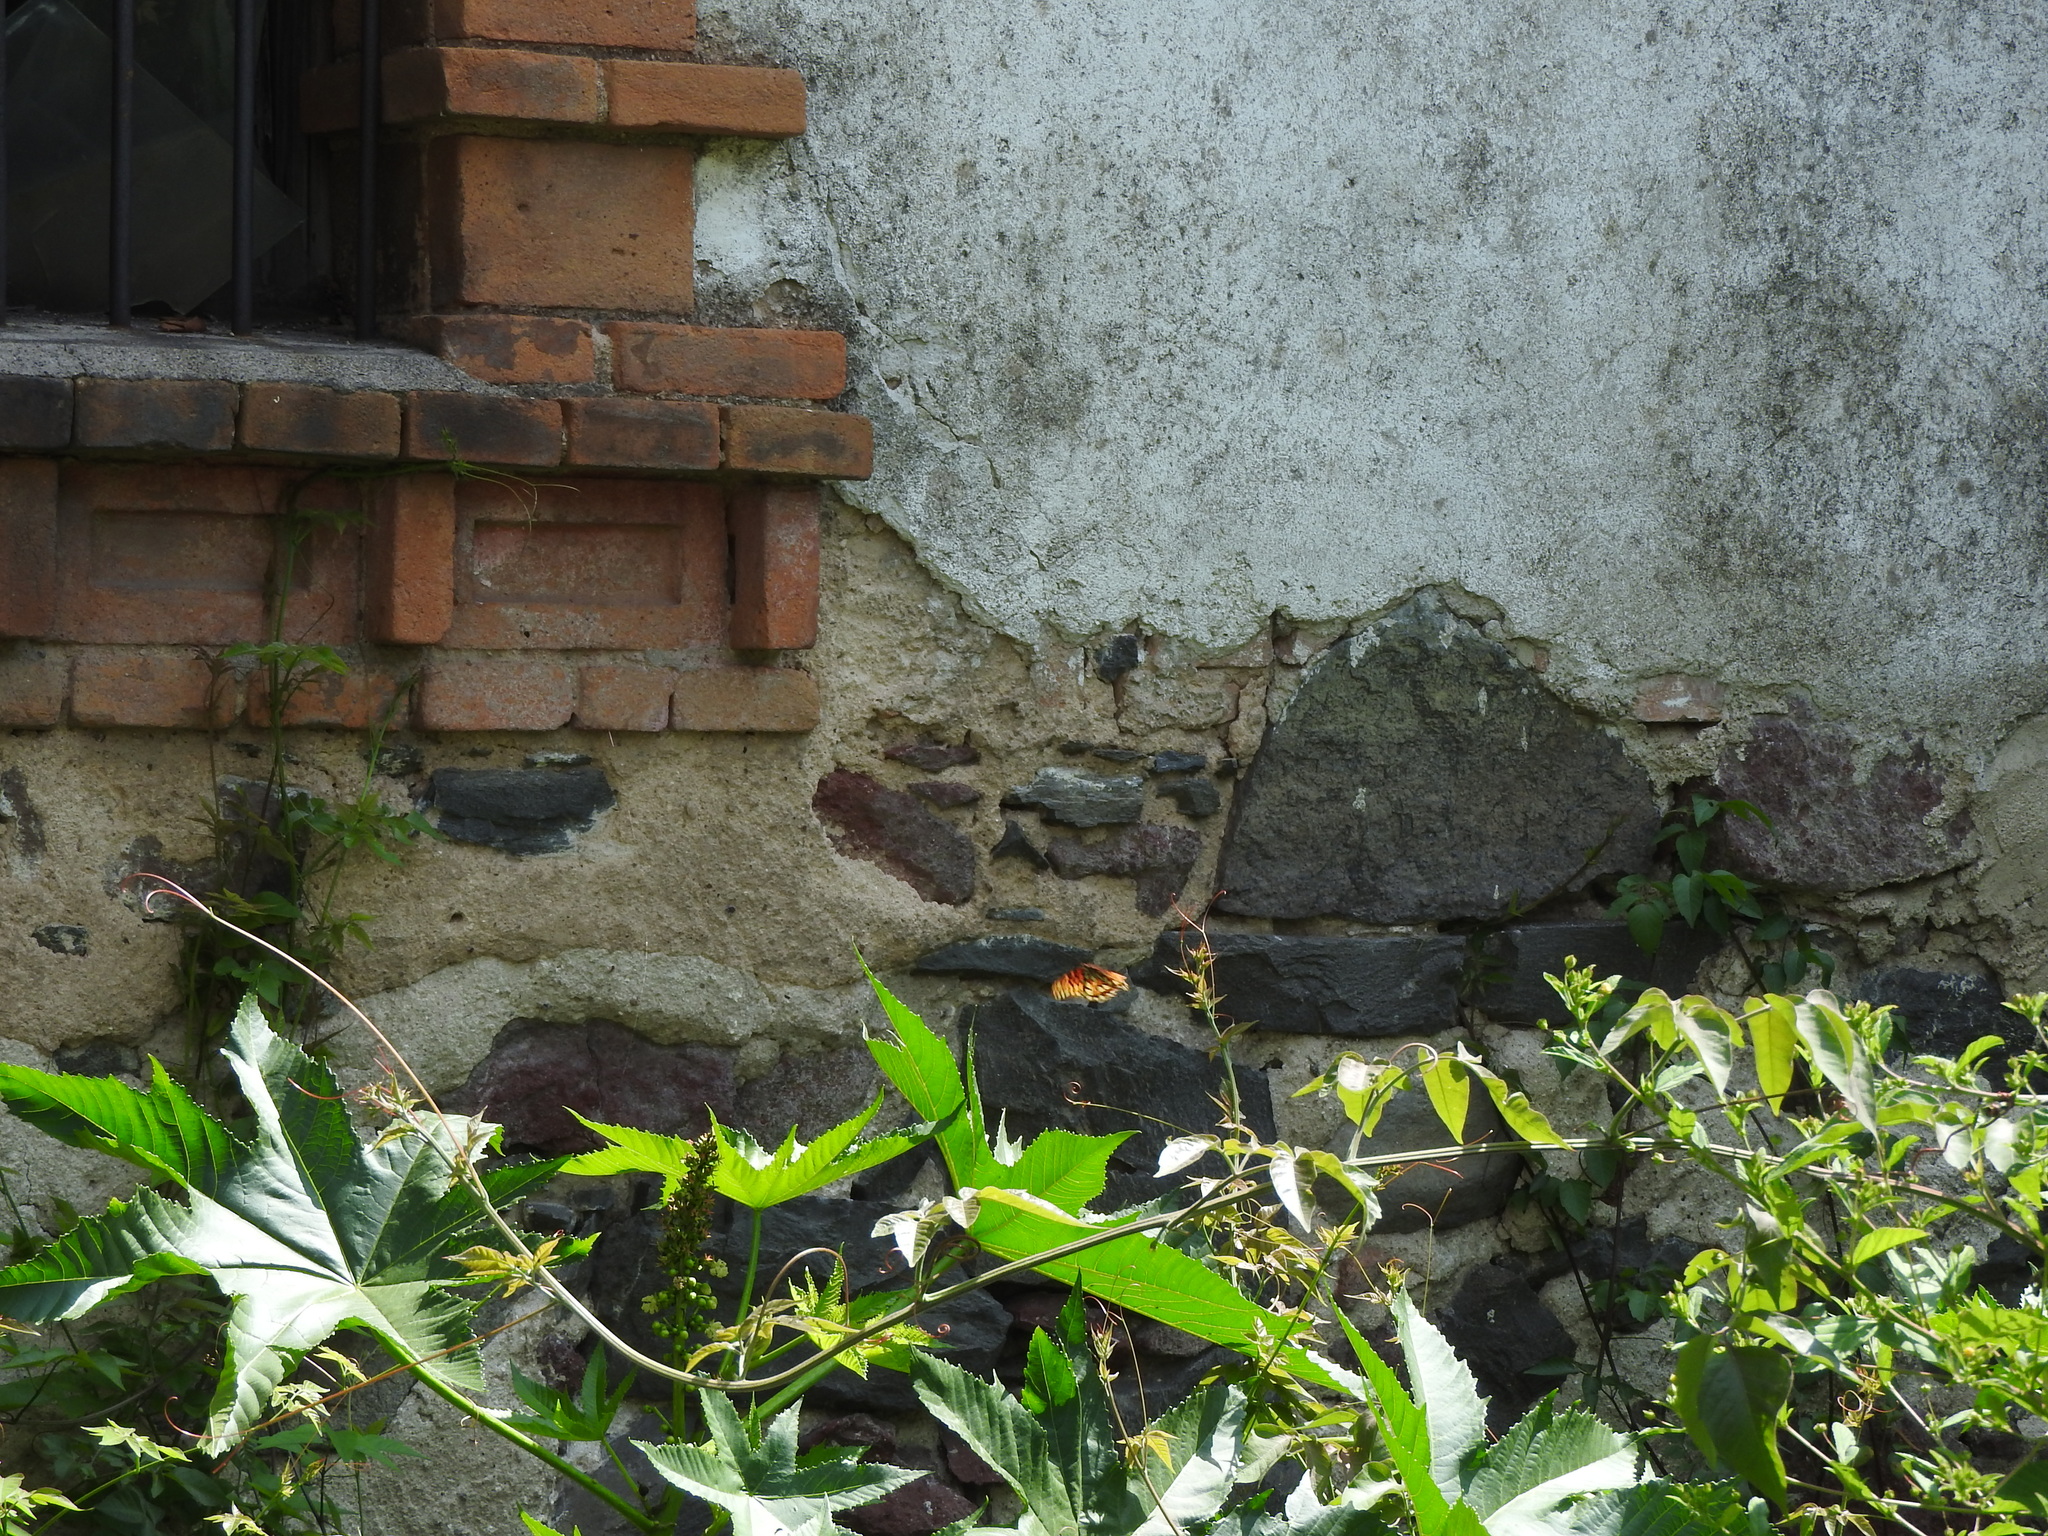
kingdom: Animalia
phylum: Arthropoda
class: Insecta
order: Lepidoptera
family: Nymphalidae
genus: Dione
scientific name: Dione moneta
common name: Mexican silverspot
